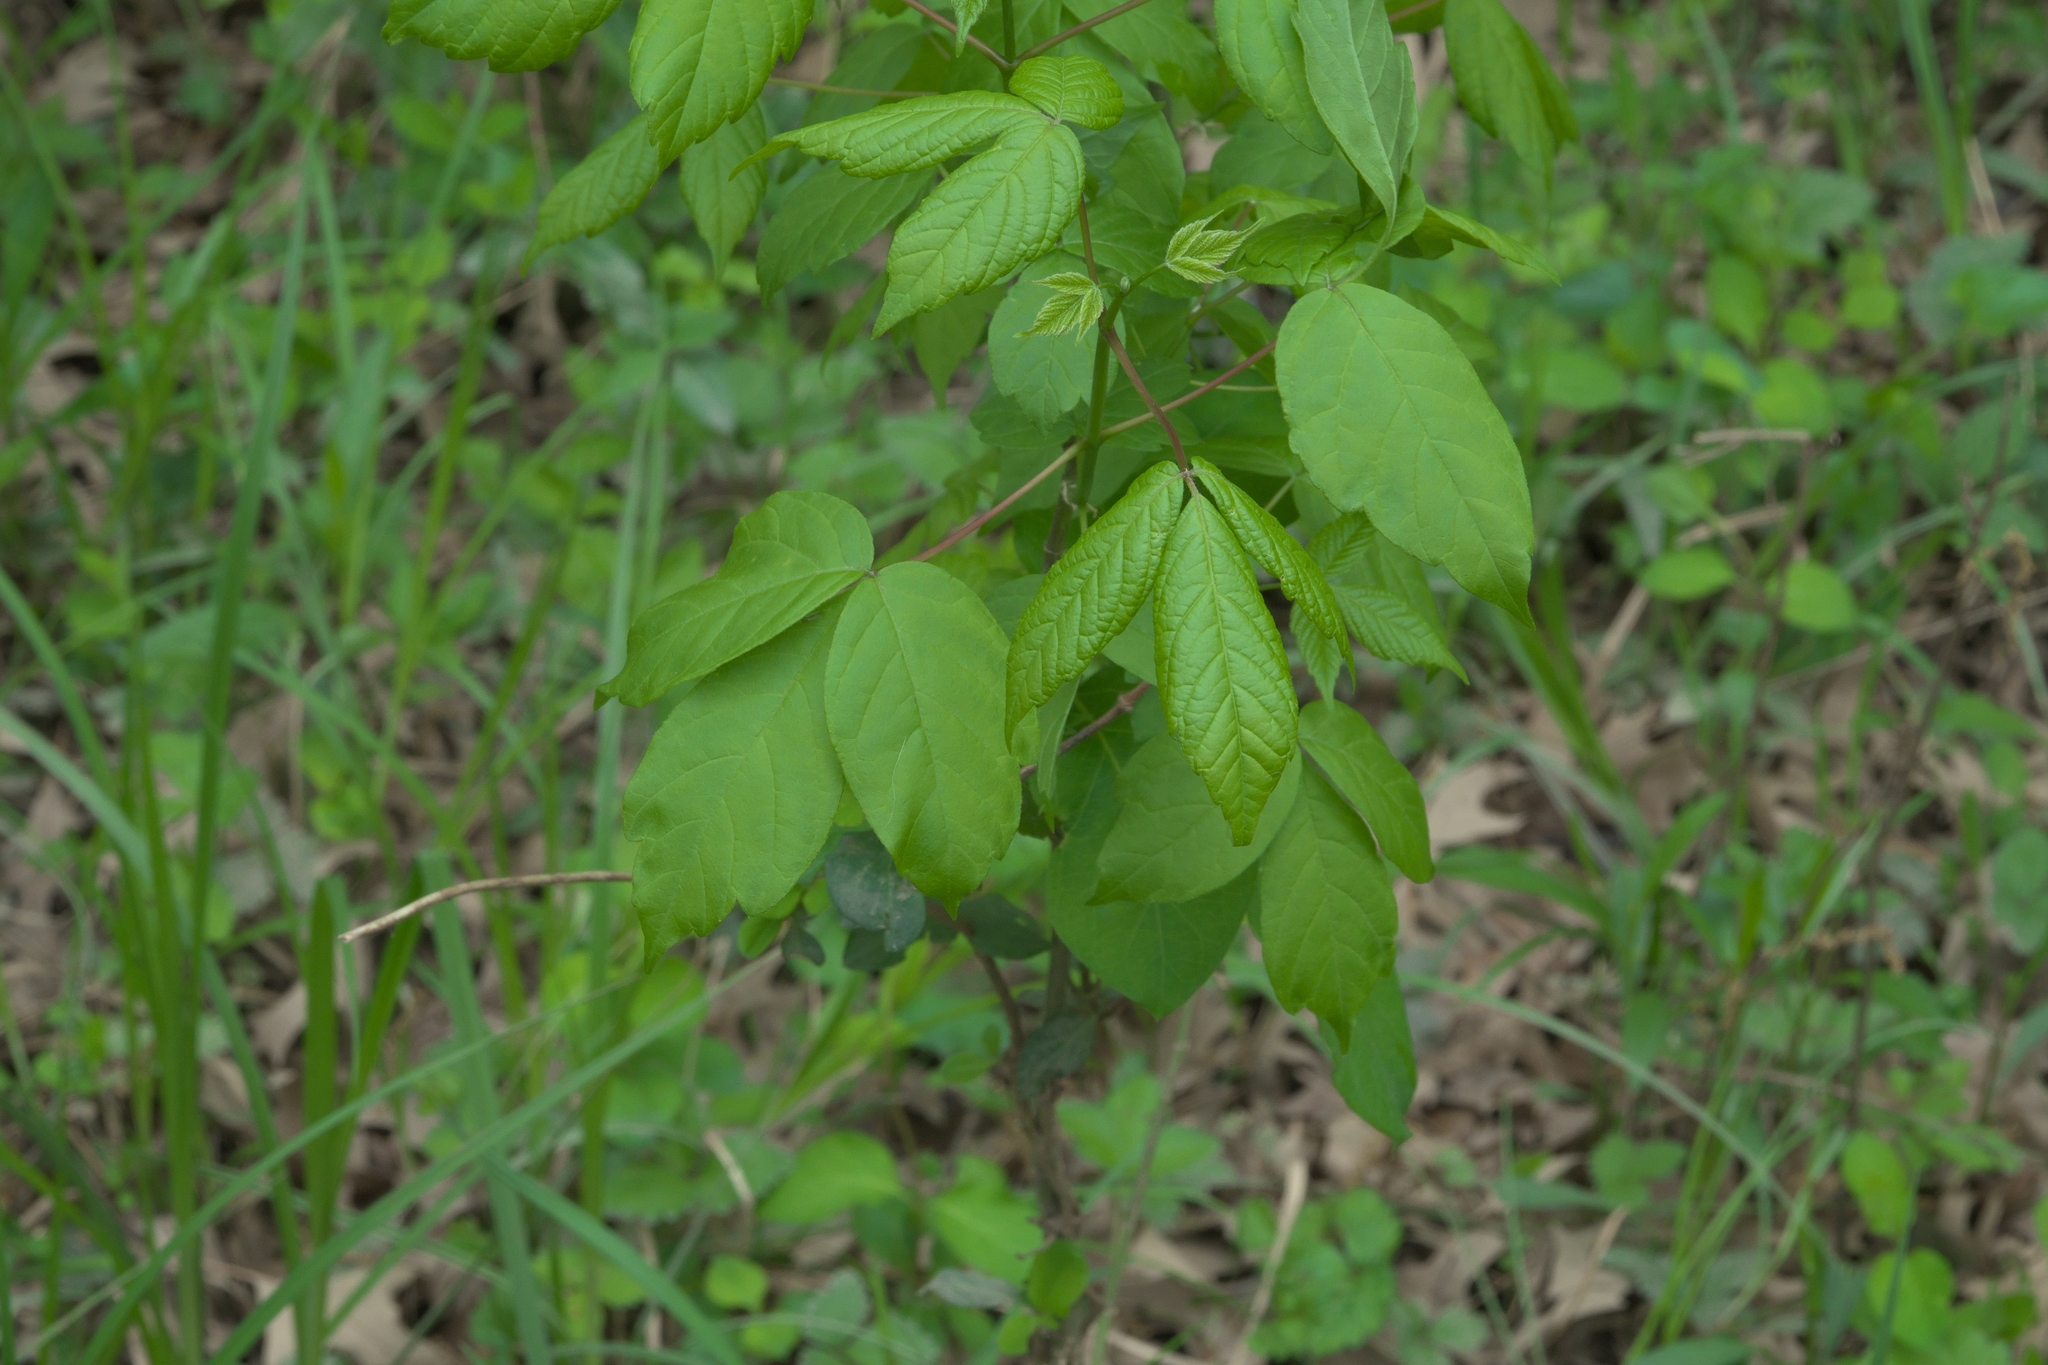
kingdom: Plantae
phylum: Tracheophyta
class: Magnoliopsida
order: Sapindales
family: Sapindaceae
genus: Acer
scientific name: Acer negundo
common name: Ashleaf maple
